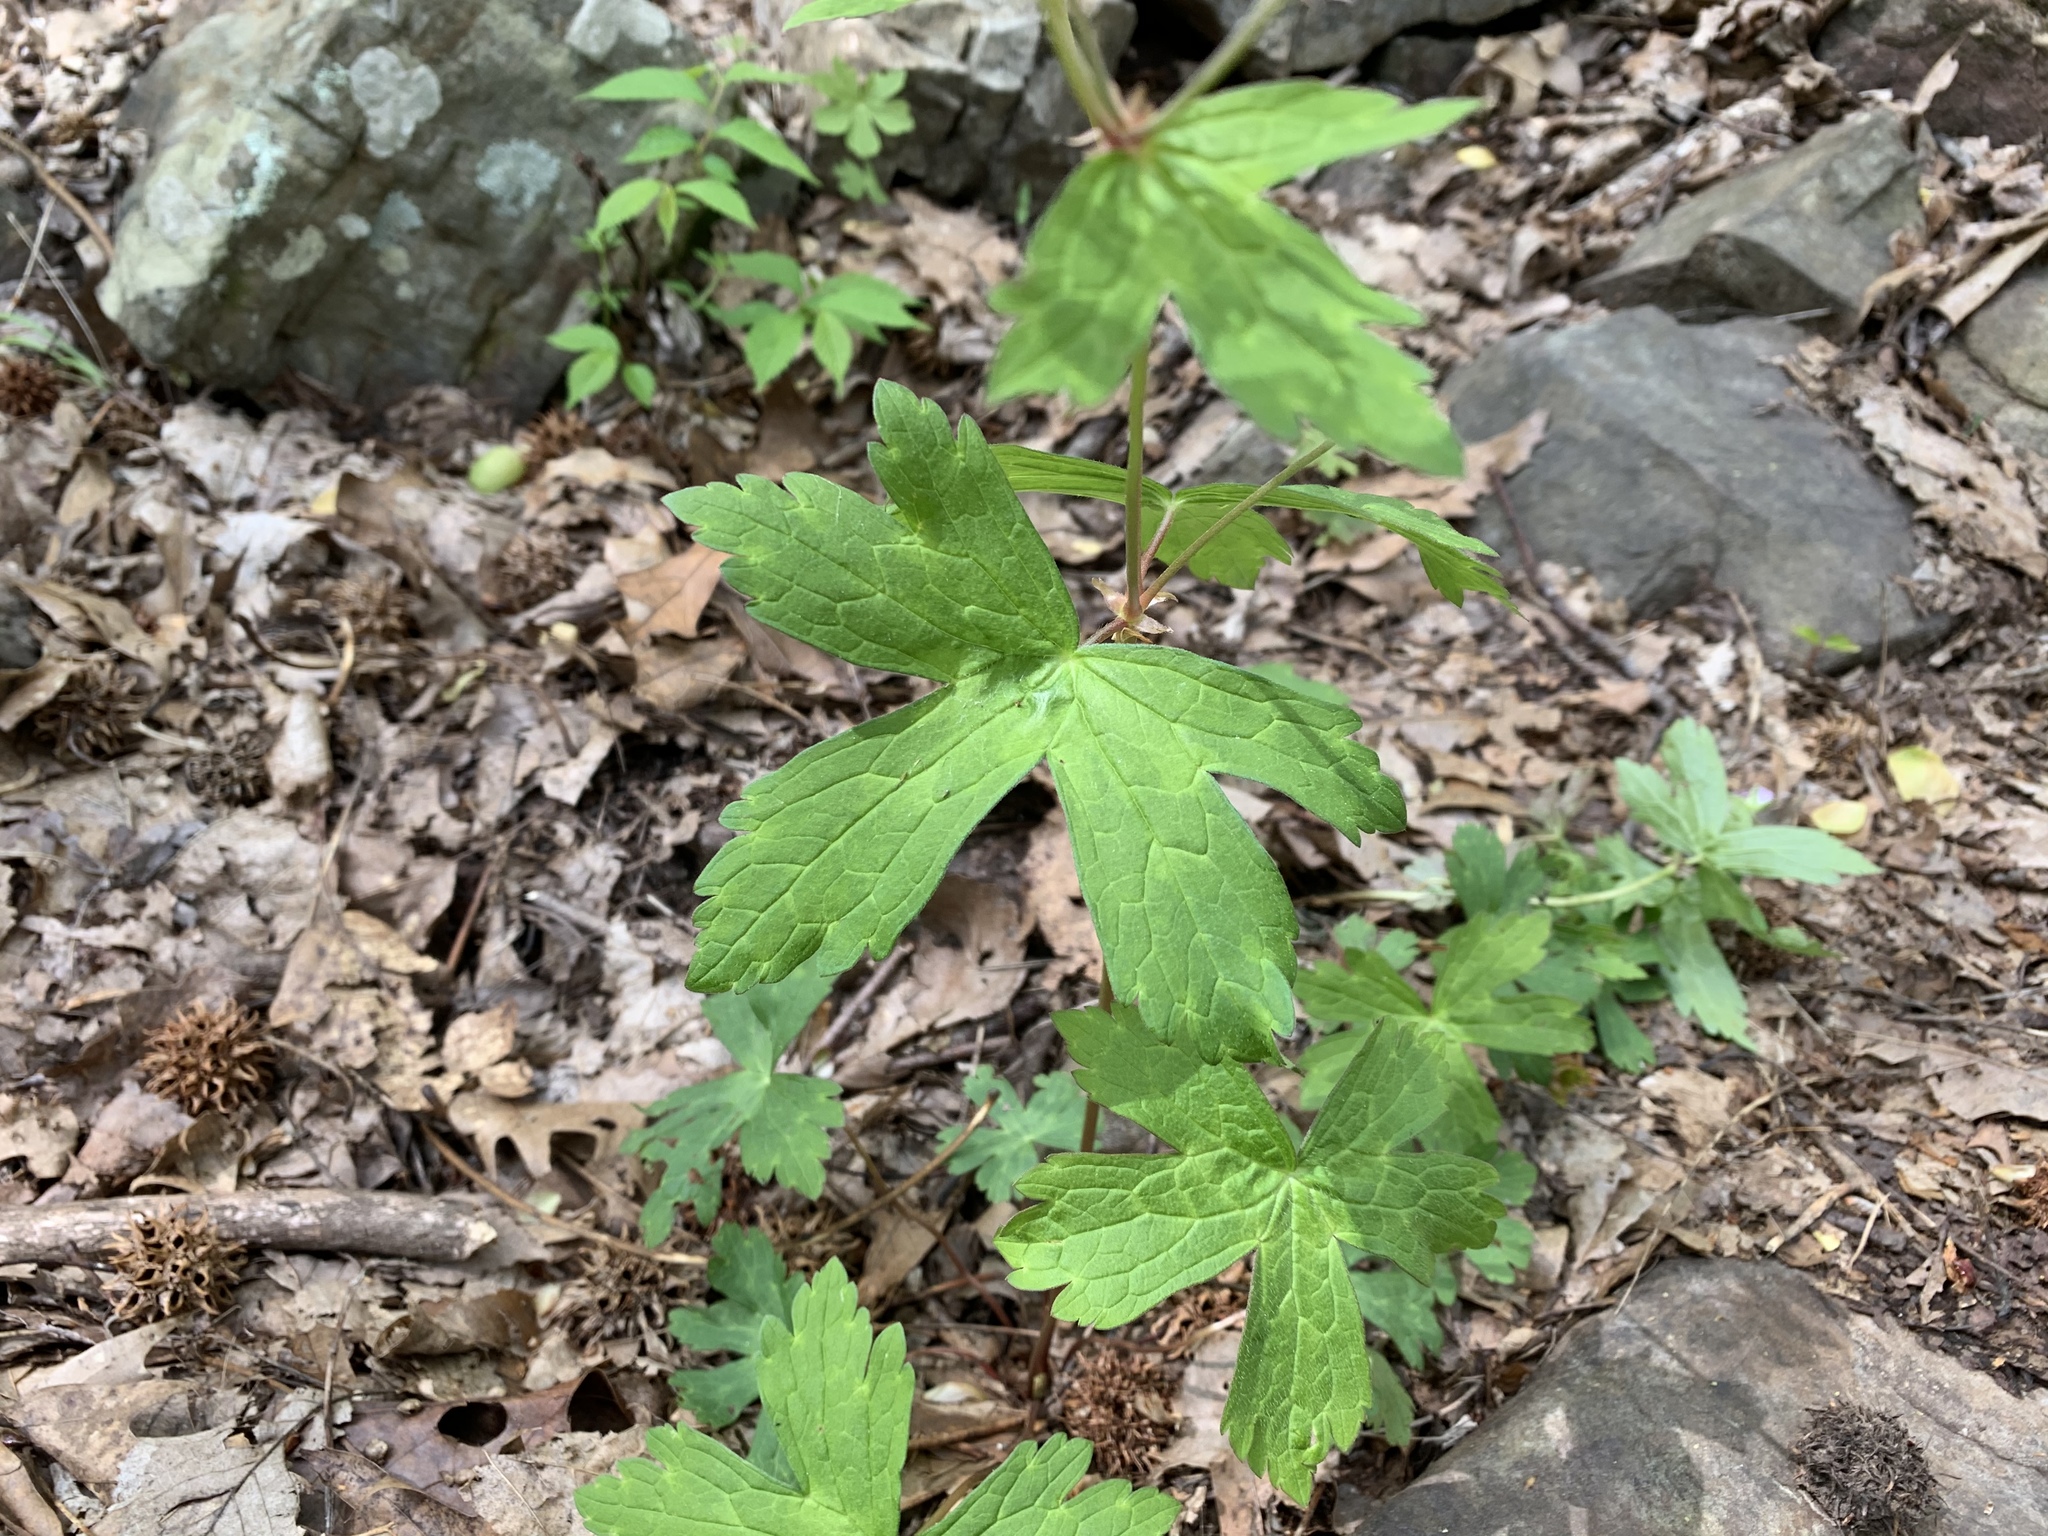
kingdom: Plantae
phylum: Tracheophyta
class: Magnoliopsida
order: Geraniales
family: Geraniaceae
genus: Geranium
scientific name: Geranium maculatum
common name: Spotted geranium
